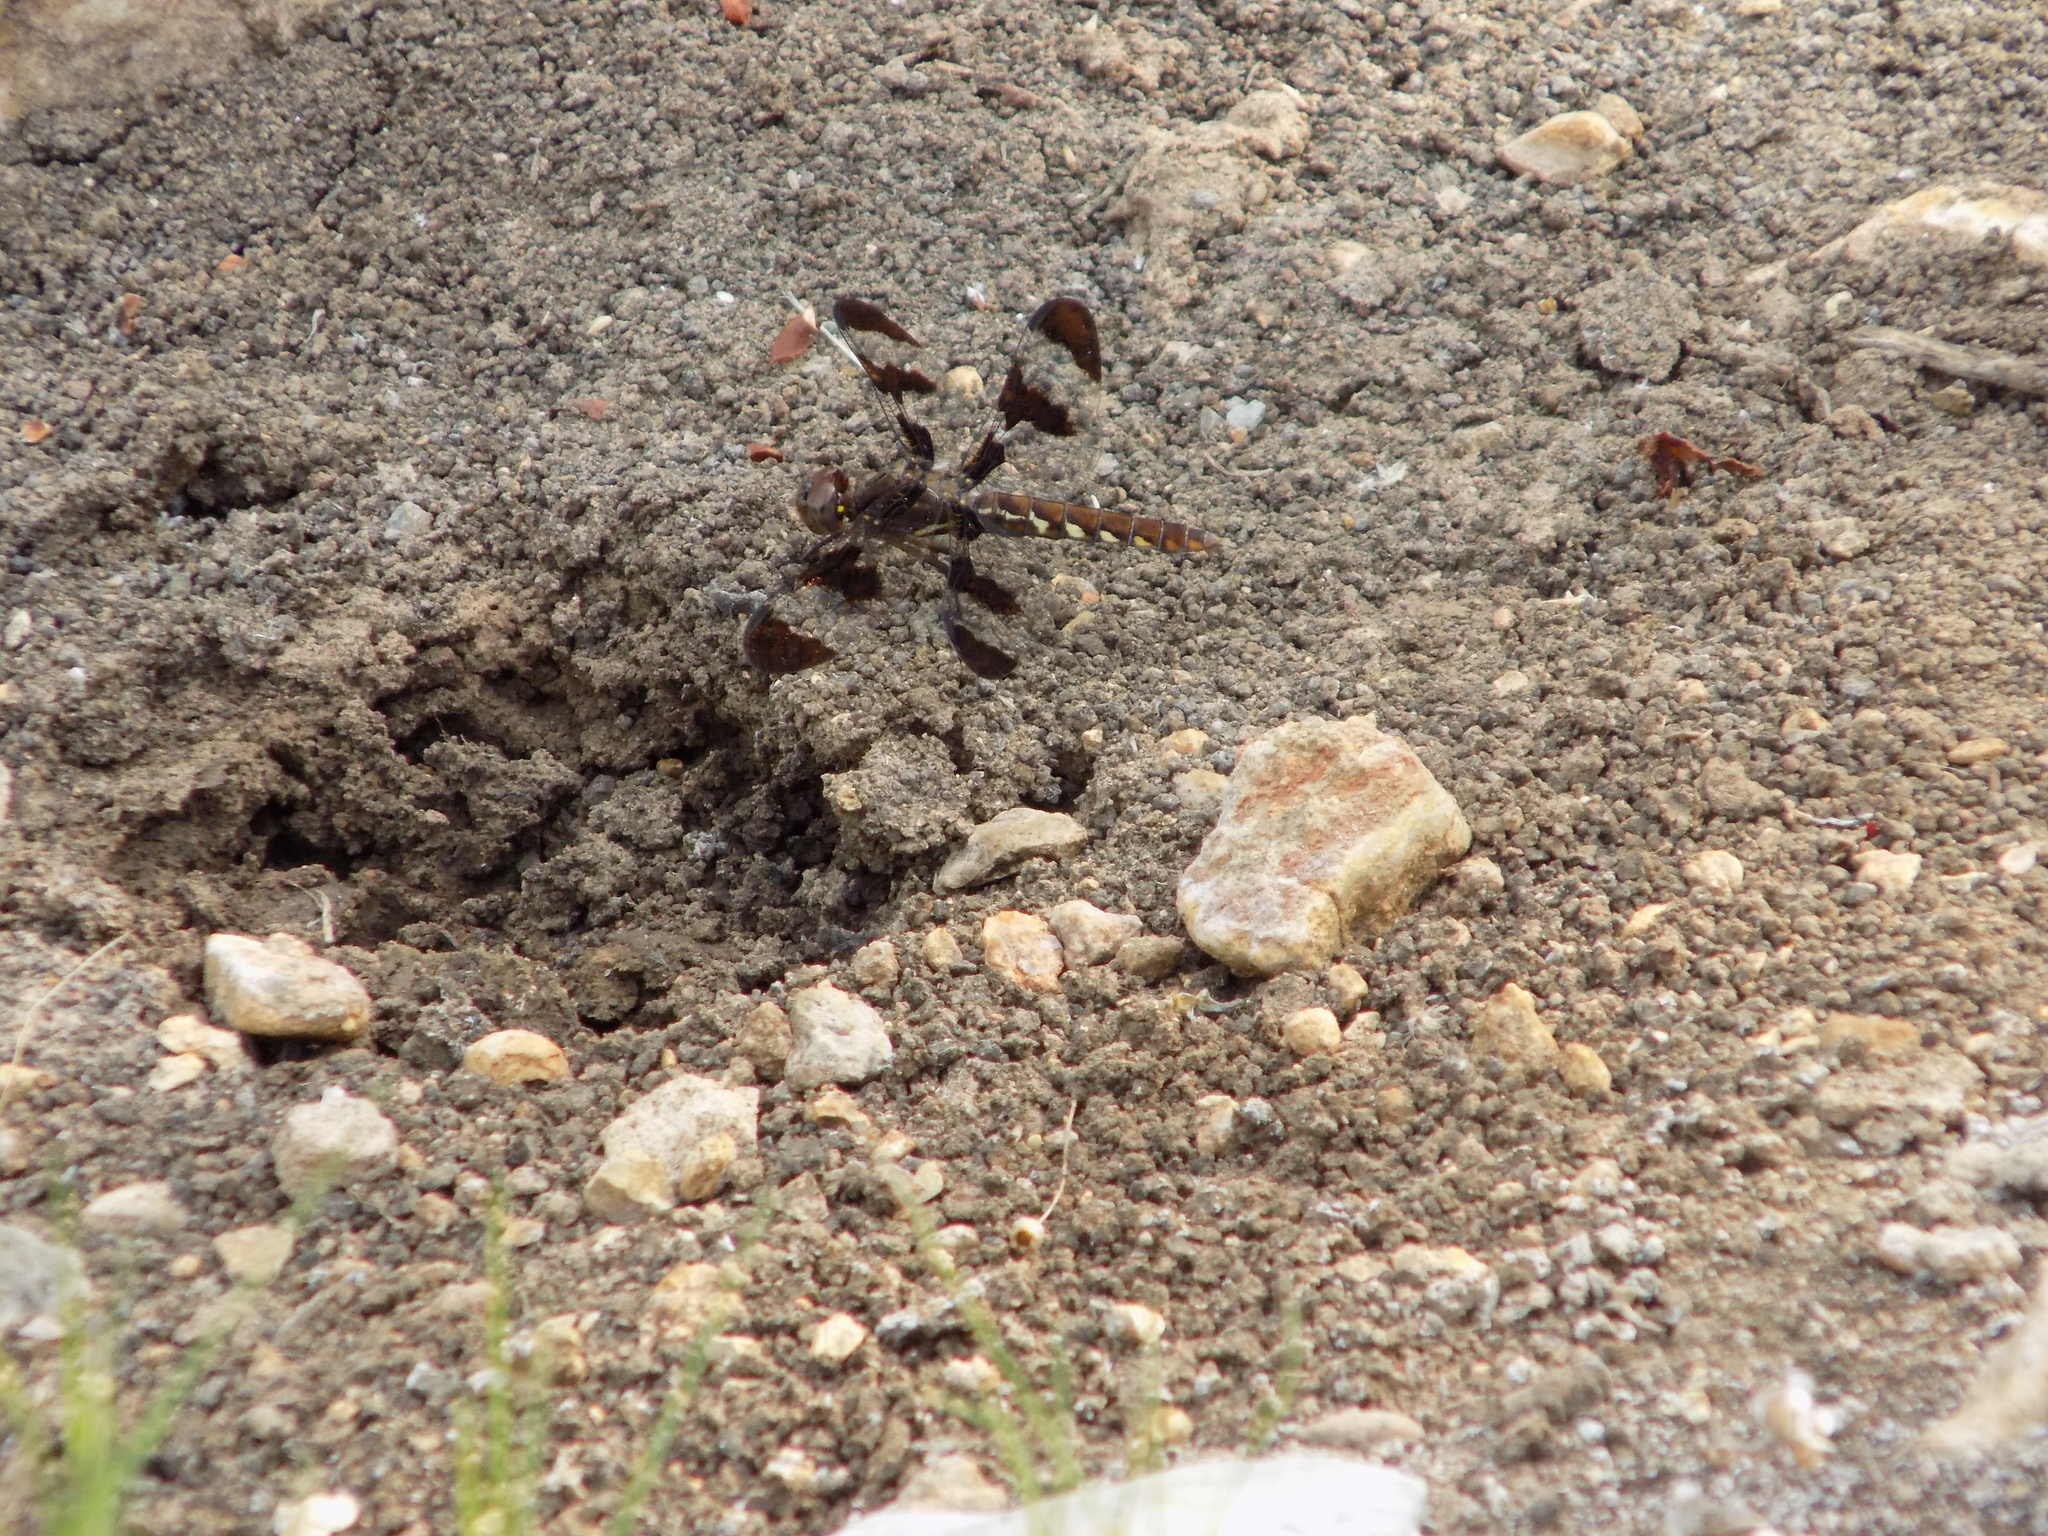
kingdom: Animalia
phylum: Arthropoda
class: Insecta
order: Odonata
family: Libellulidae
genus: Plathemis
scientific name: Plathemis lydia
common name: Common whitetail
